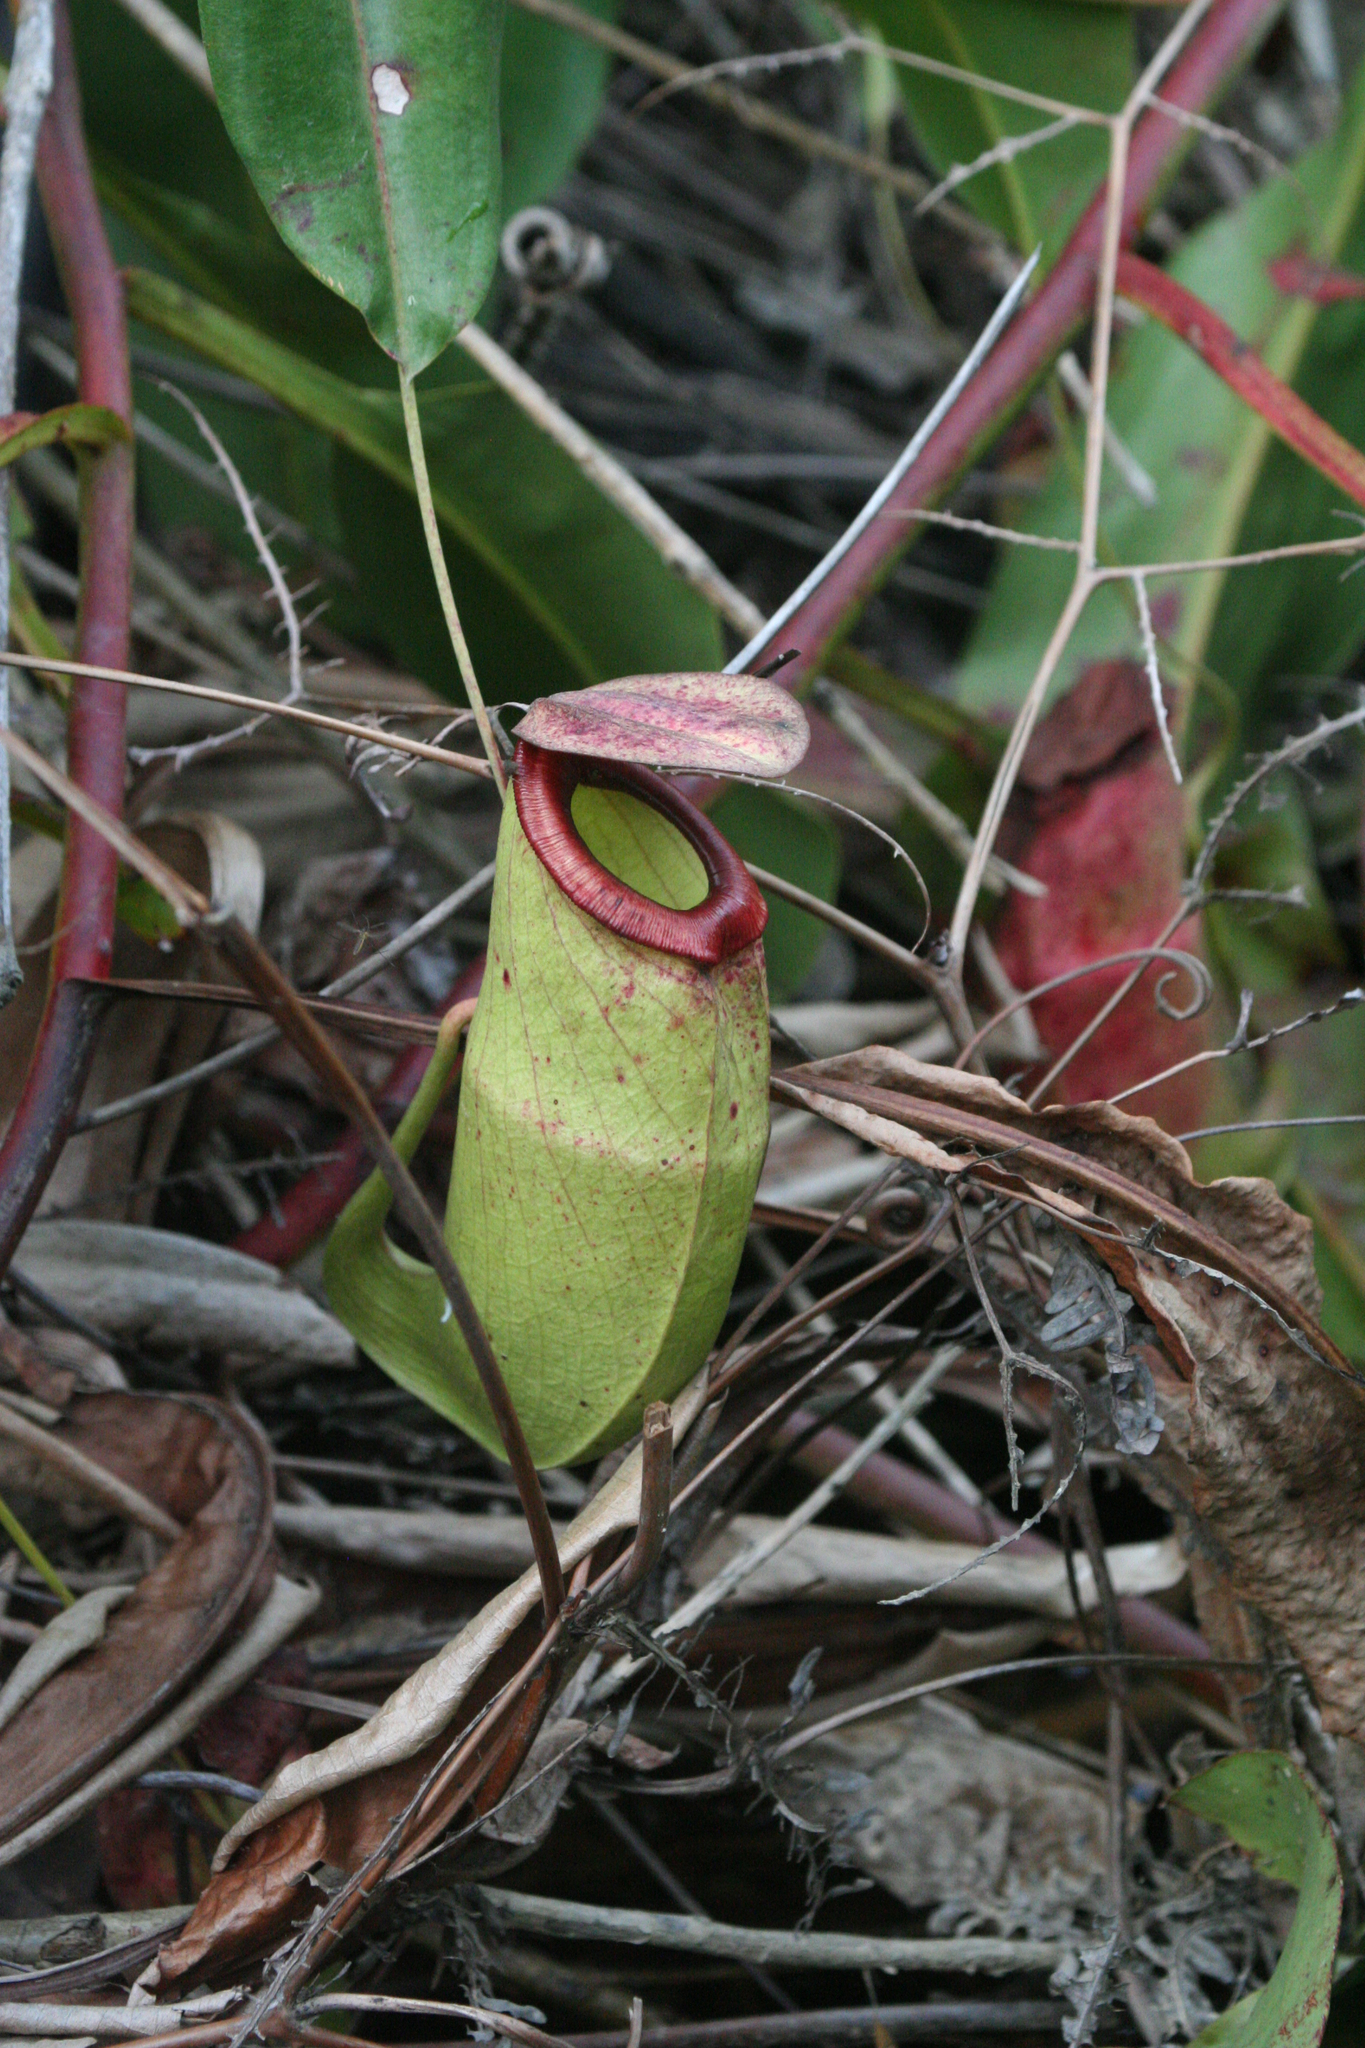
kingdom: Plantae
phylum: Tracheophyta
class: Magnoliopsida
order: Caryophyllales
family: Nepenthaceae
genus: Nepenthes
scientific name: Nepenthes mirabilis
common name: Tropical pitcherplant
